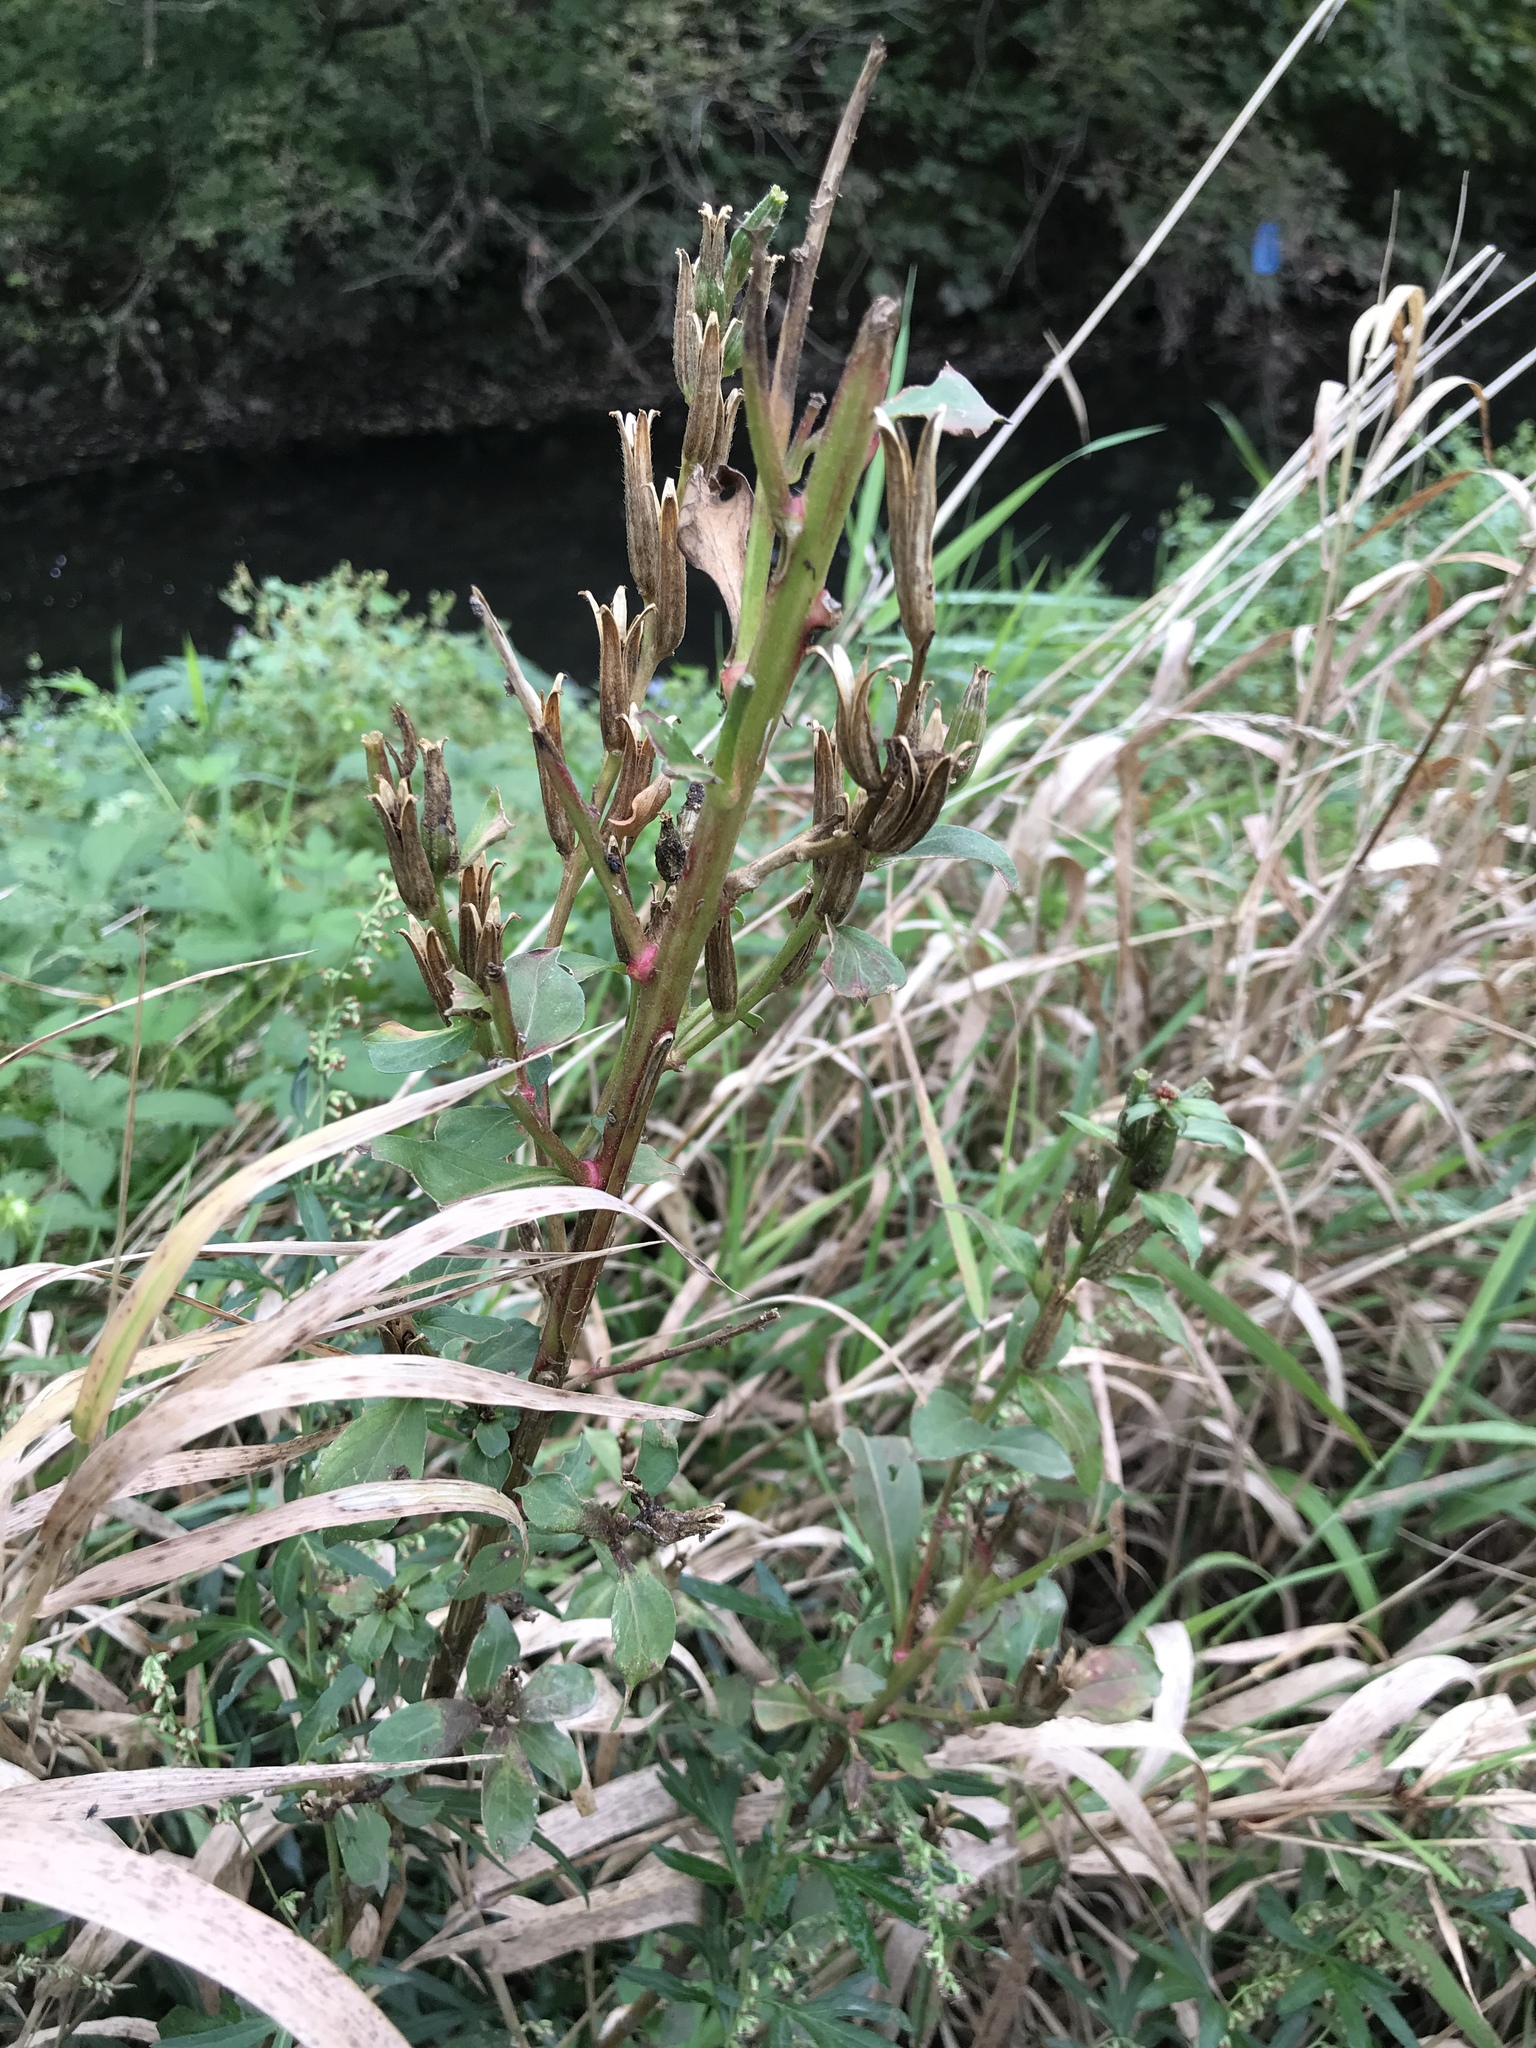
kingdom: Plantae
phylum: Tracheophyta
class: Magnoliopsida
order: Myrtales
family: Onagraceae
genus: Oenothera
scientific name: Oenothera biennis
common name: Common evening-primrose
